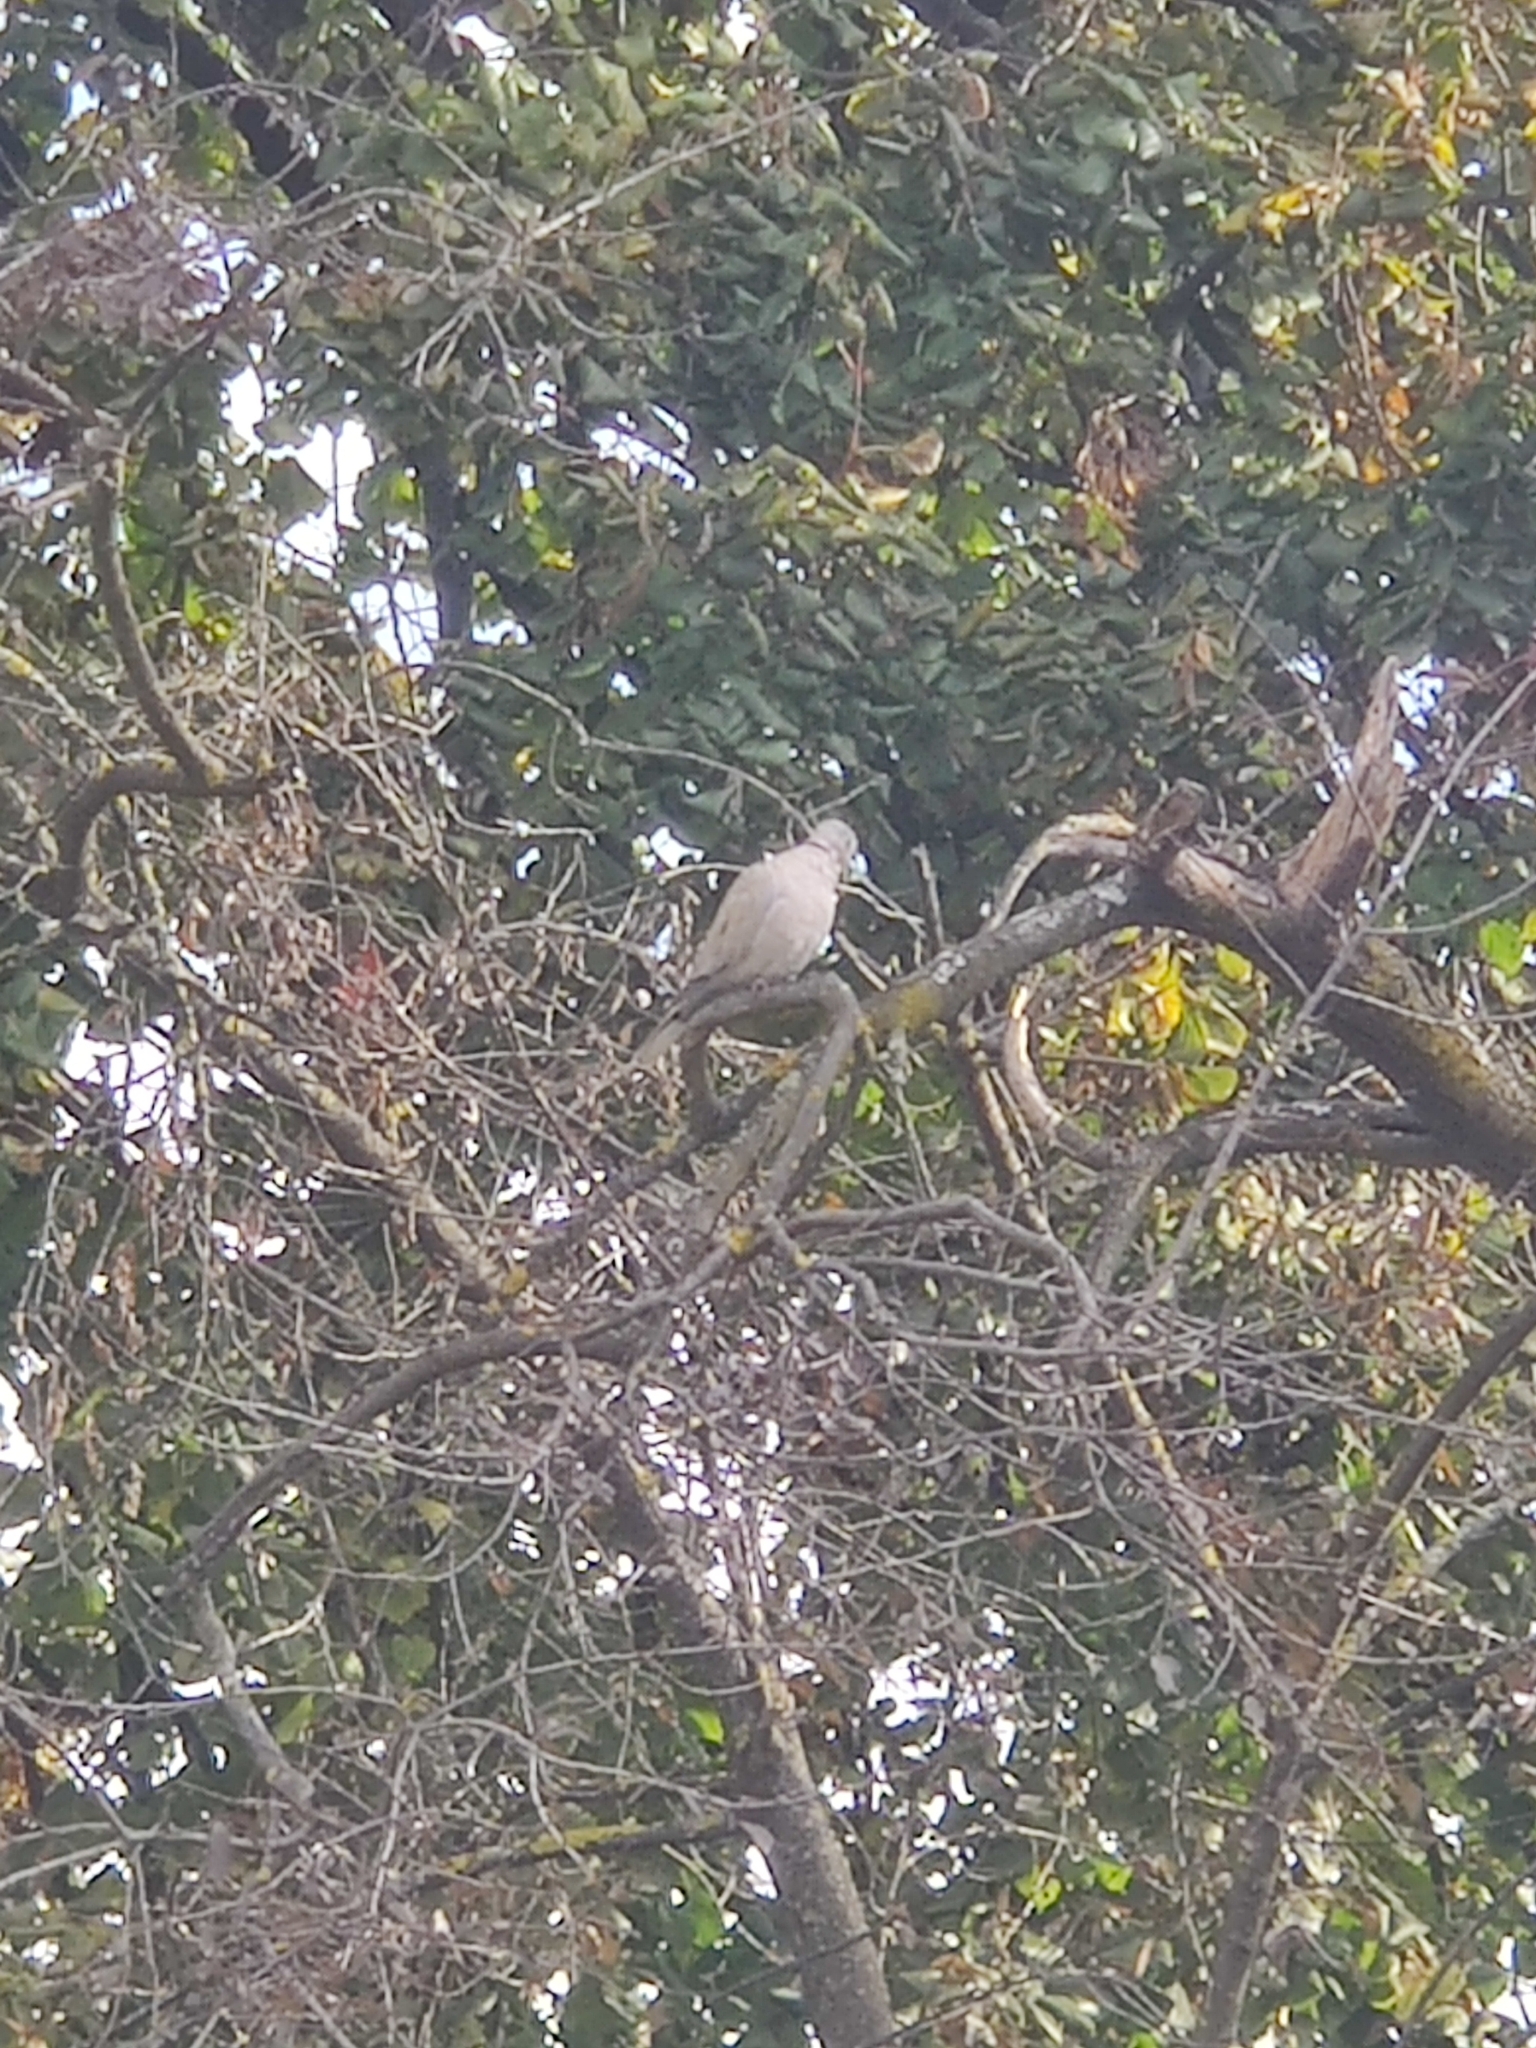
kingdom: Animalia
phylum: Chordata
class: Aves
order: Columbiformes
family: Columbidae
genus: Streptopelia
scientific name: Streptopelia decaocto
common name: Eurasian collared dove
